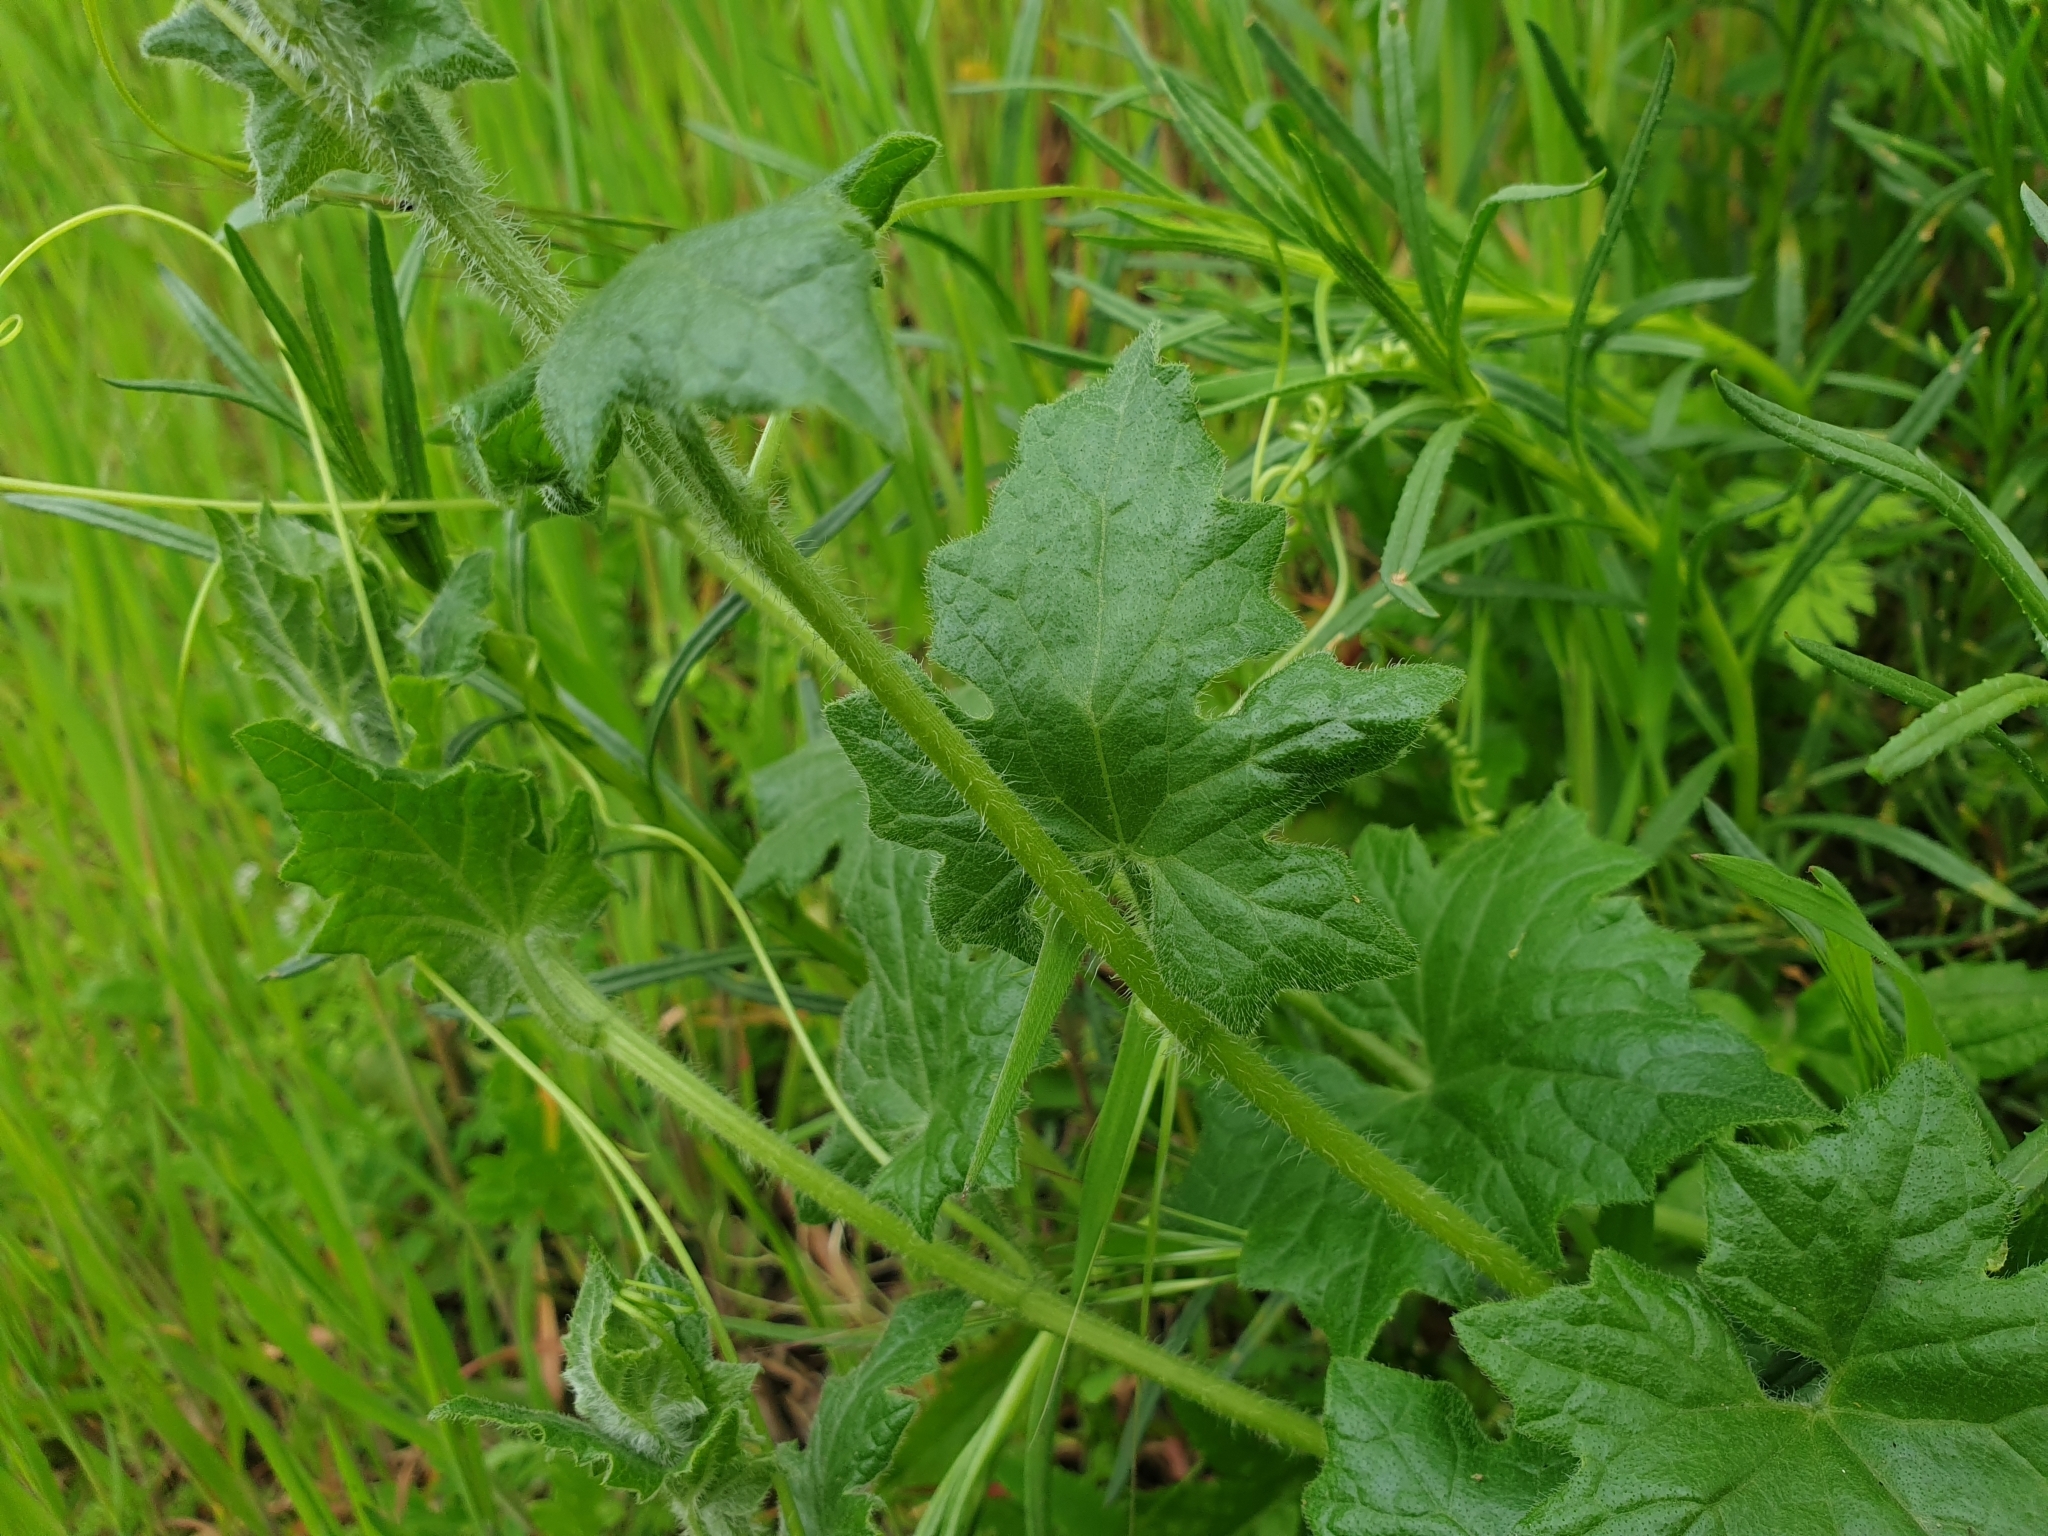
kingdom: Plantae
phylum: Tracheophyta
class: Magnoliopsida
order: Cucurbitales
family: Cucurbitaceae
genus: Bryonia
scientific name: Bryonia cretica
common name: Cretan bryony
